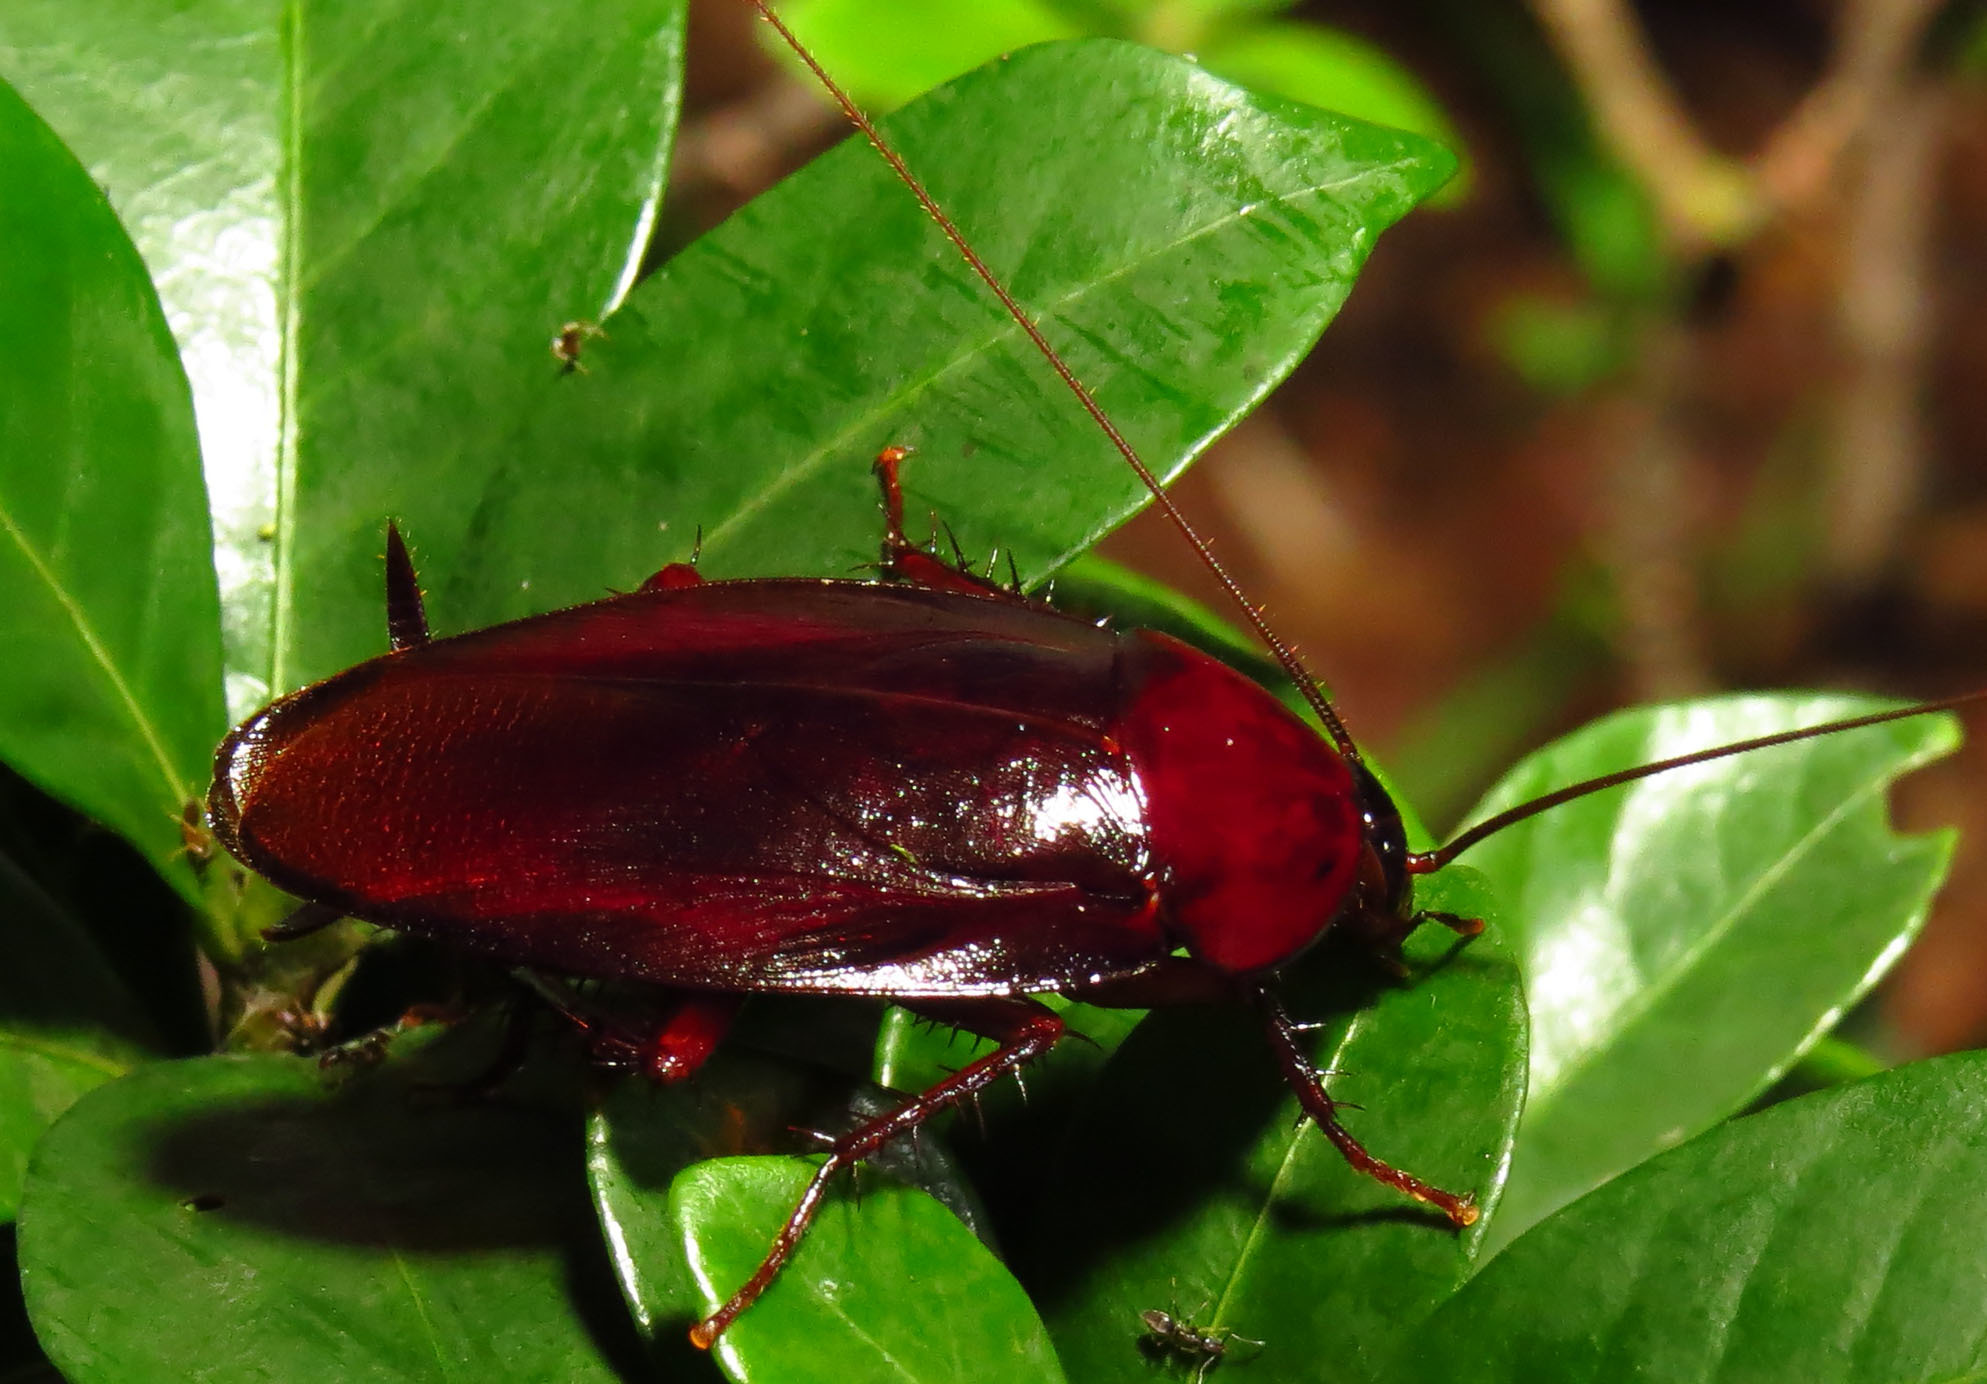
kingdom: Animalia
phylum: Arthropoda
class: Insecta
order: Blattodea
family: Blattidae
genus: Periplaneta
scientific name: Periplaneta fuliginosa
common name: Smokeybrown cockroad
